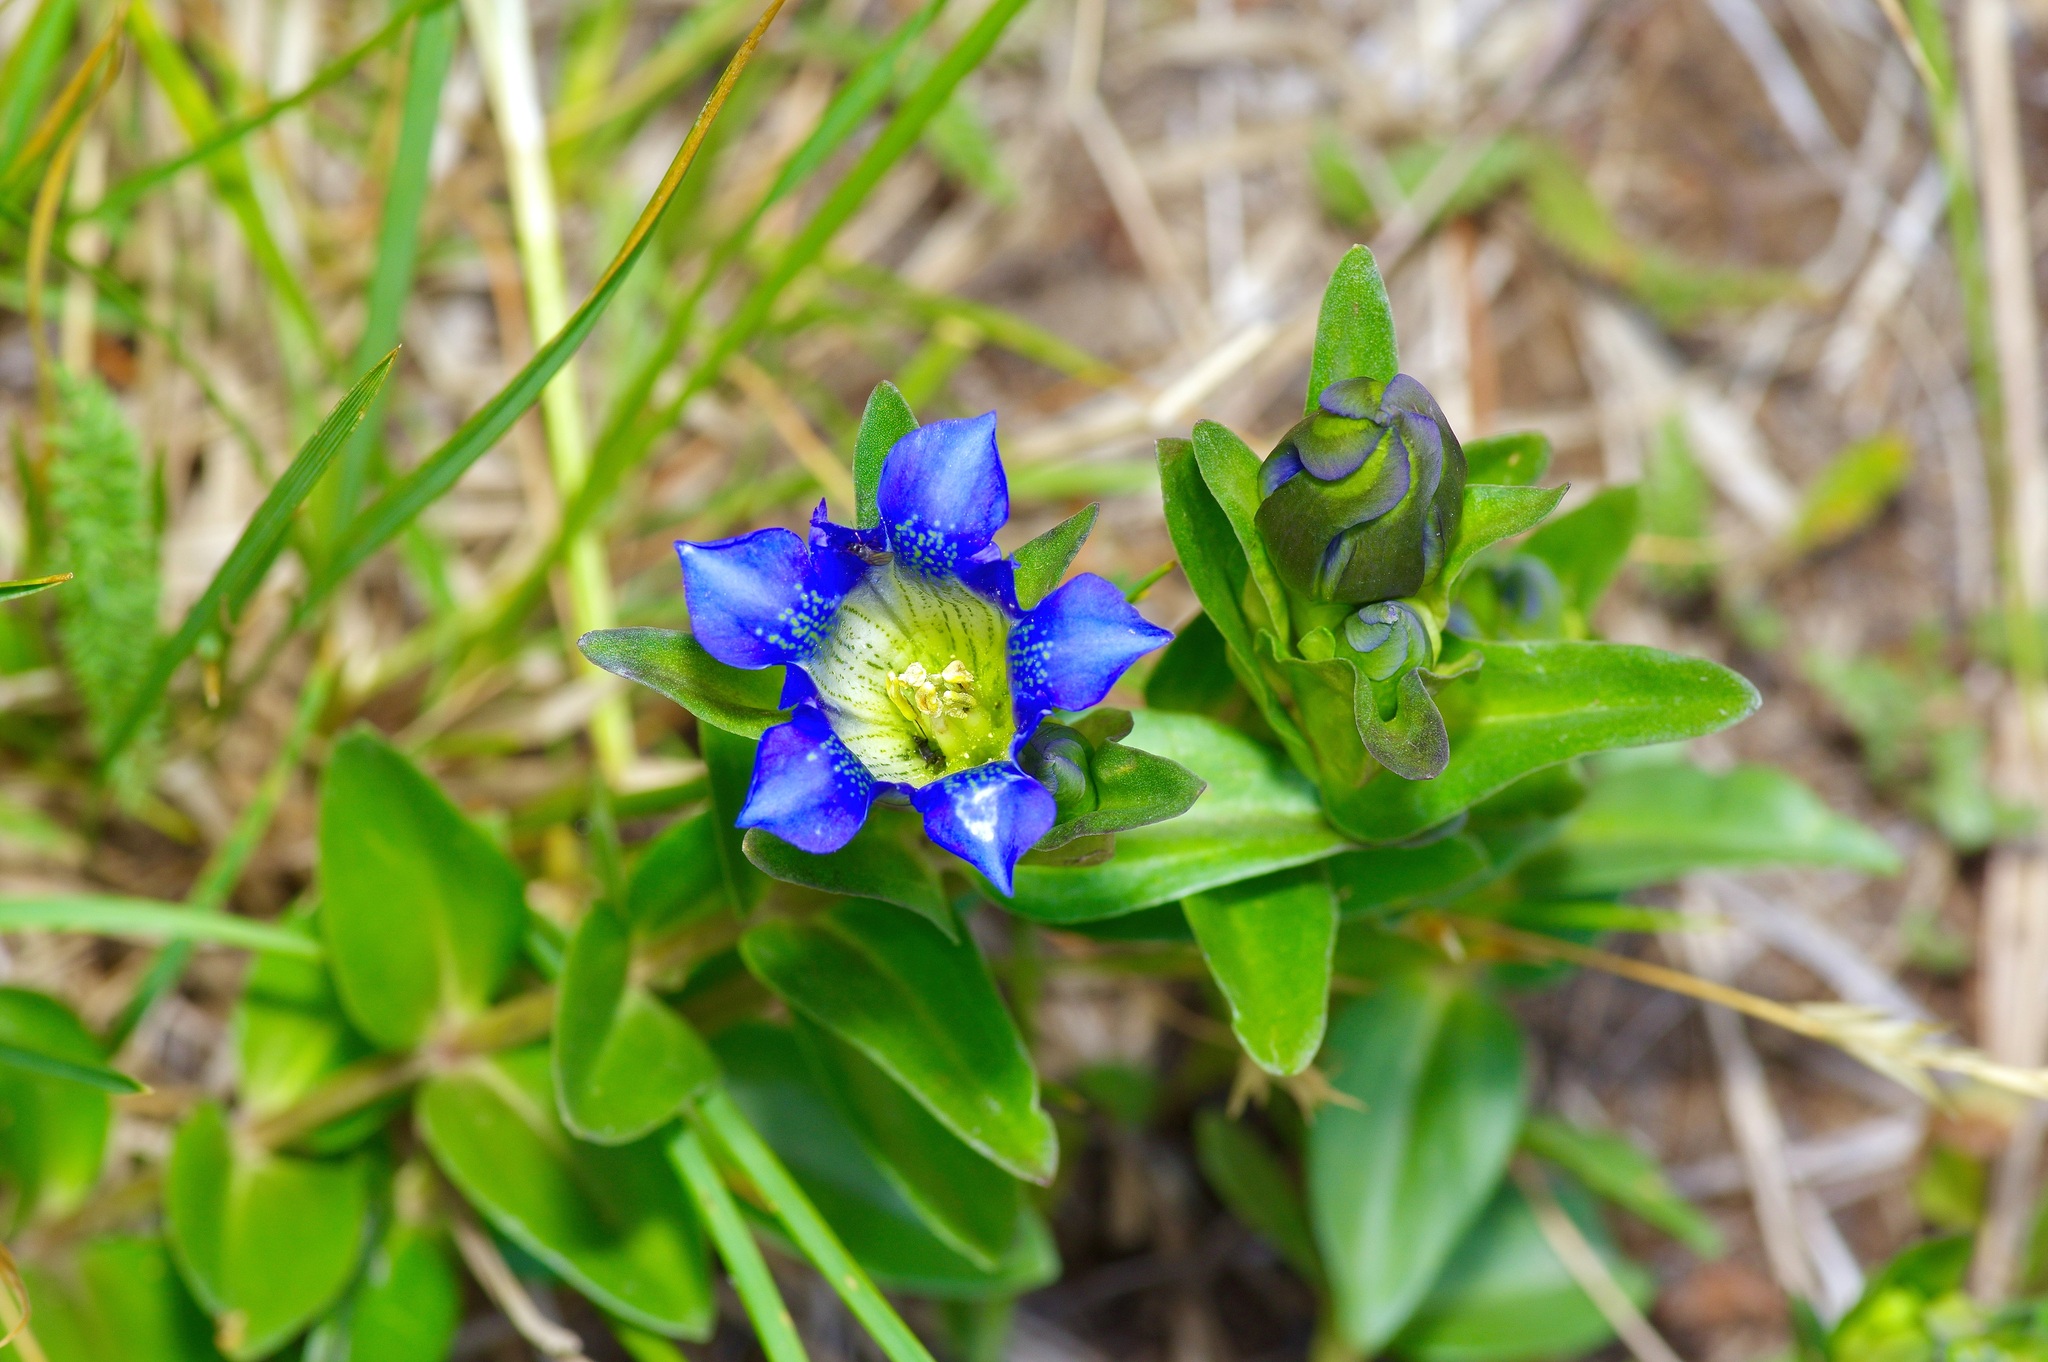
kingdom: Plantae
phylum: Tracheophyta
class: Magnoliopsida
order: Gentianales
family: Gentianaceae
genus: Gentiana
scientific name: Gentiana parryi
